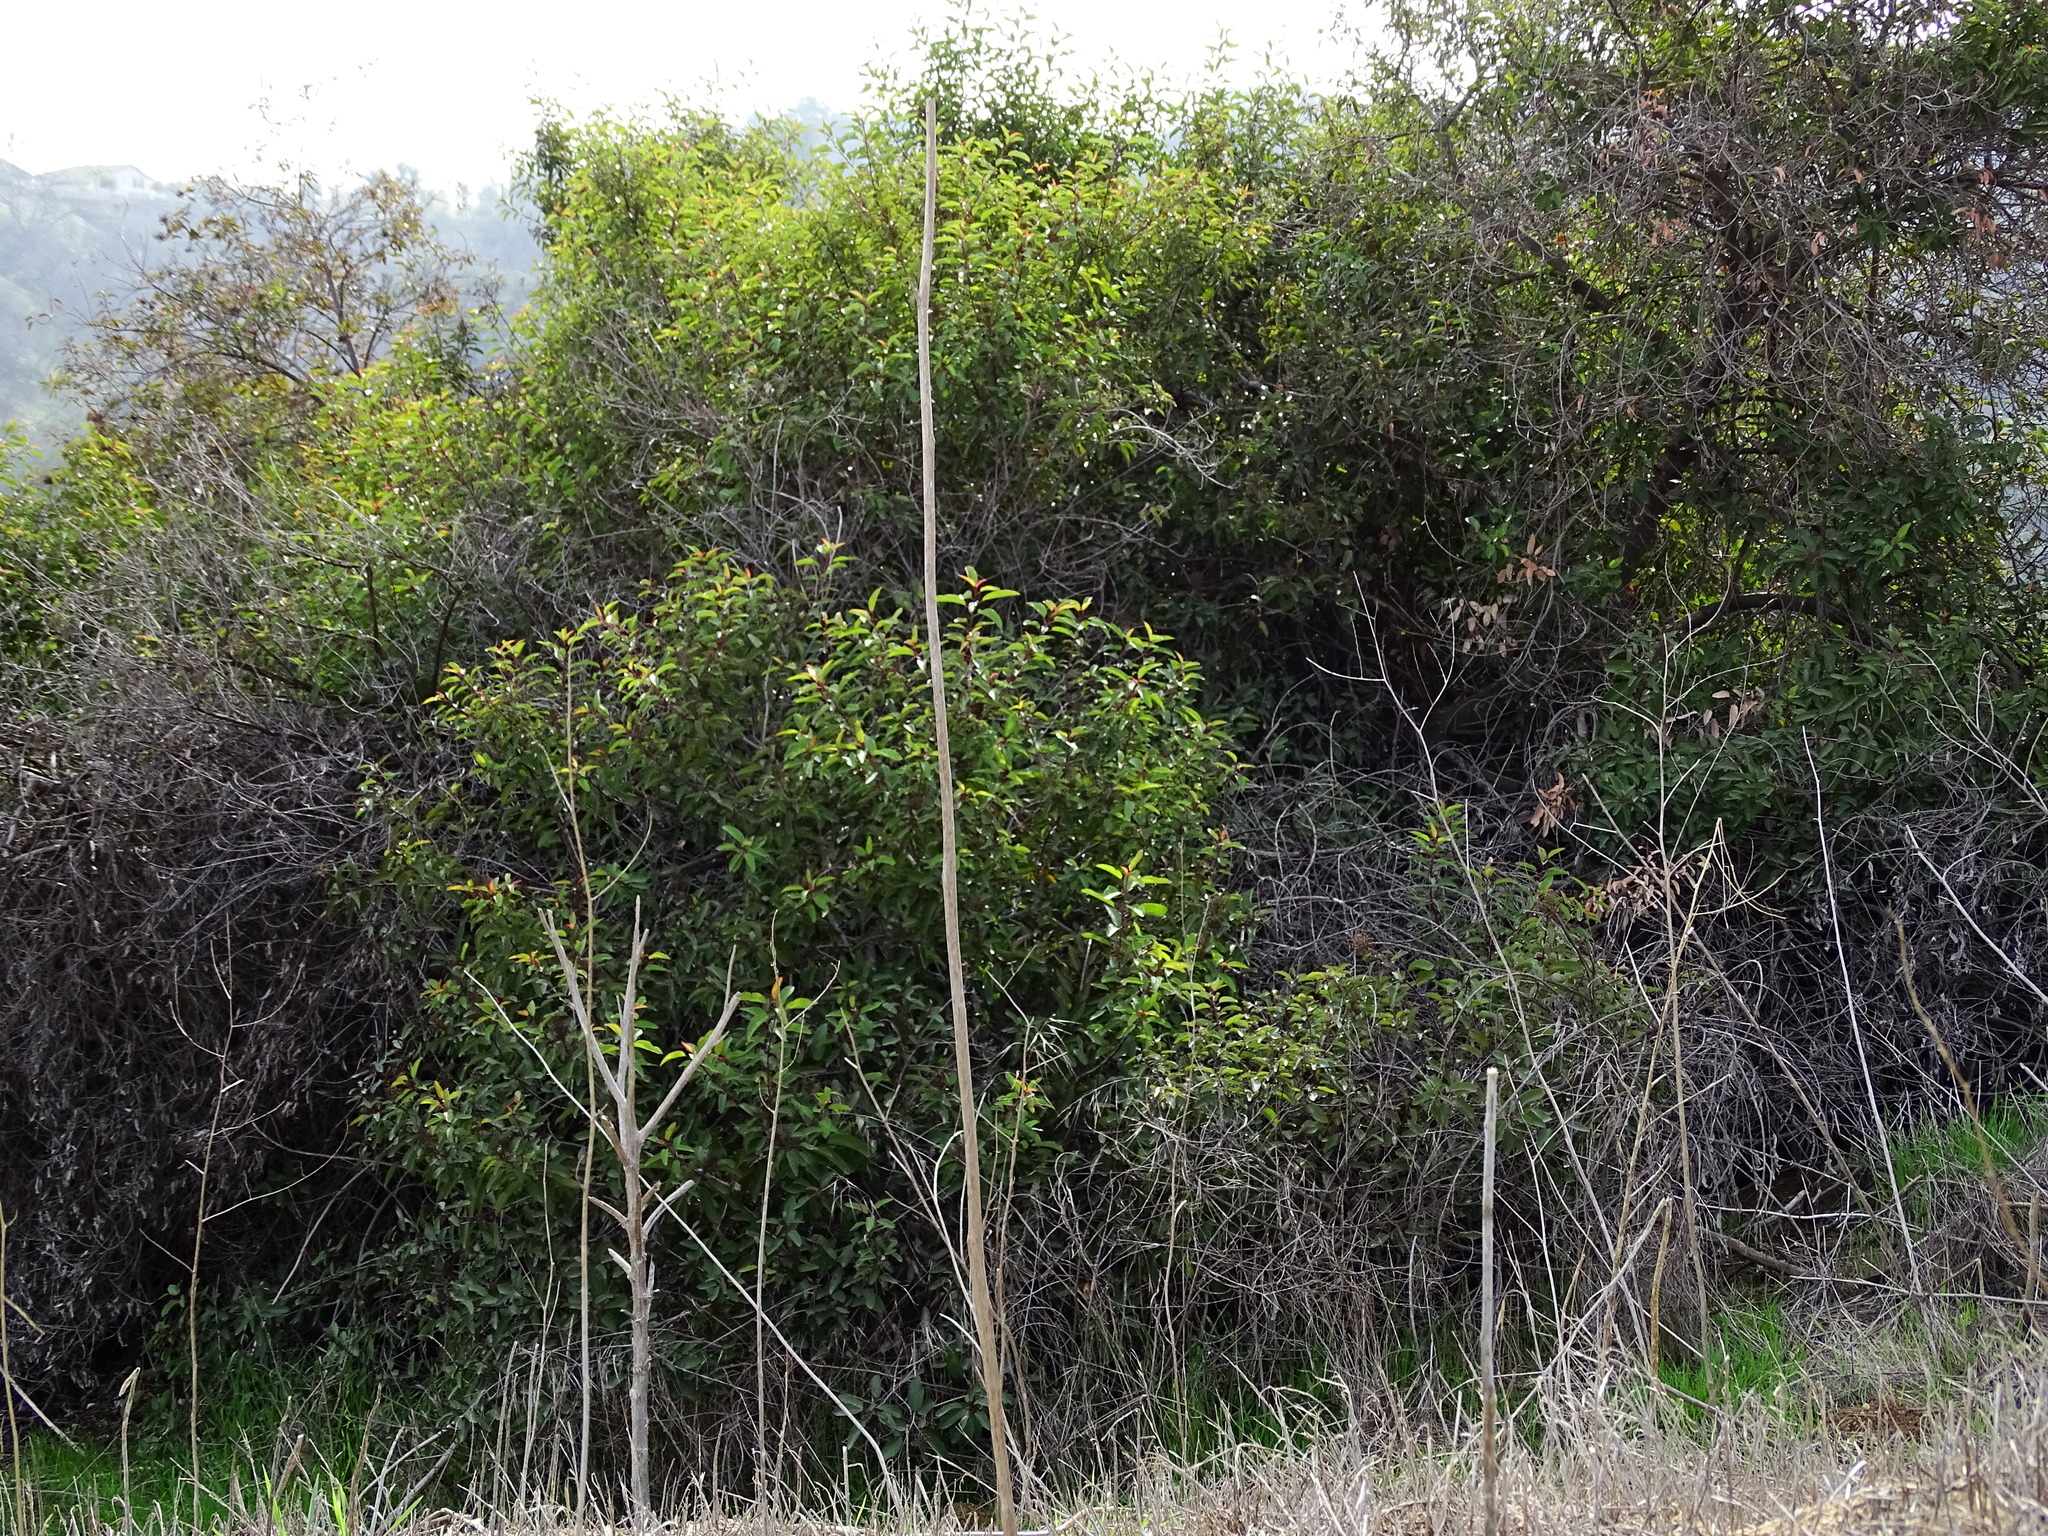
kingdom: Plantae
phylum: Tracheophyta
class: Magnoliopsida
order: Sapindales
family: Anacardiaceae
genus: Malosma
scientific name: Malosma laurina
